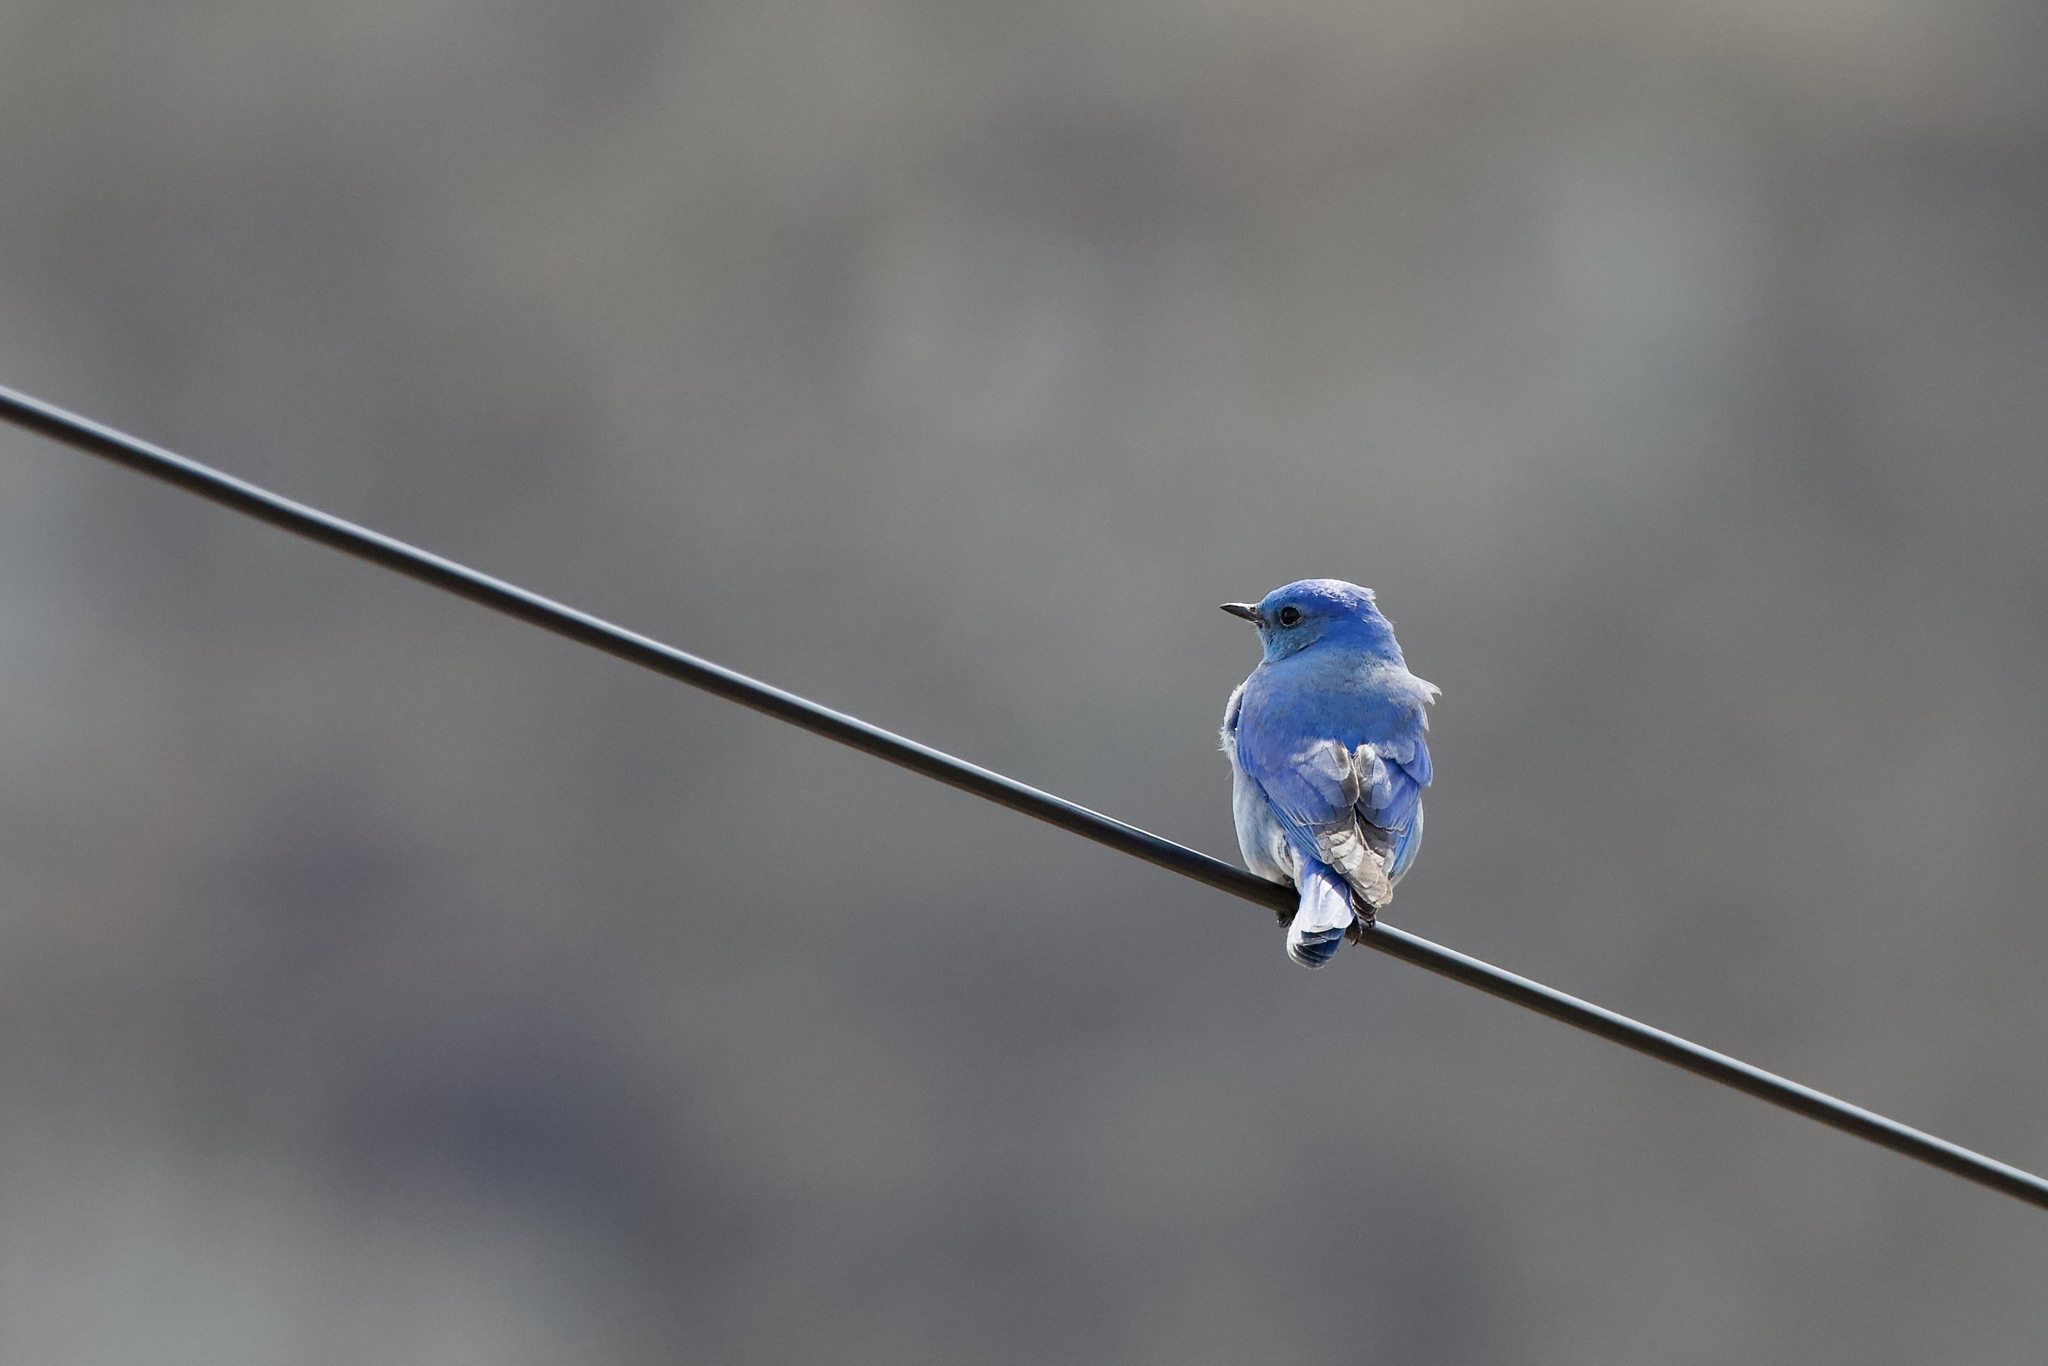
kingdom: Animalia
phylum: Chordata
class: Aves
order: Passeriformes
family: Turdidae
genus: Sialia
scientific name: Sialia currucoides
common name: Mountain bluebird
